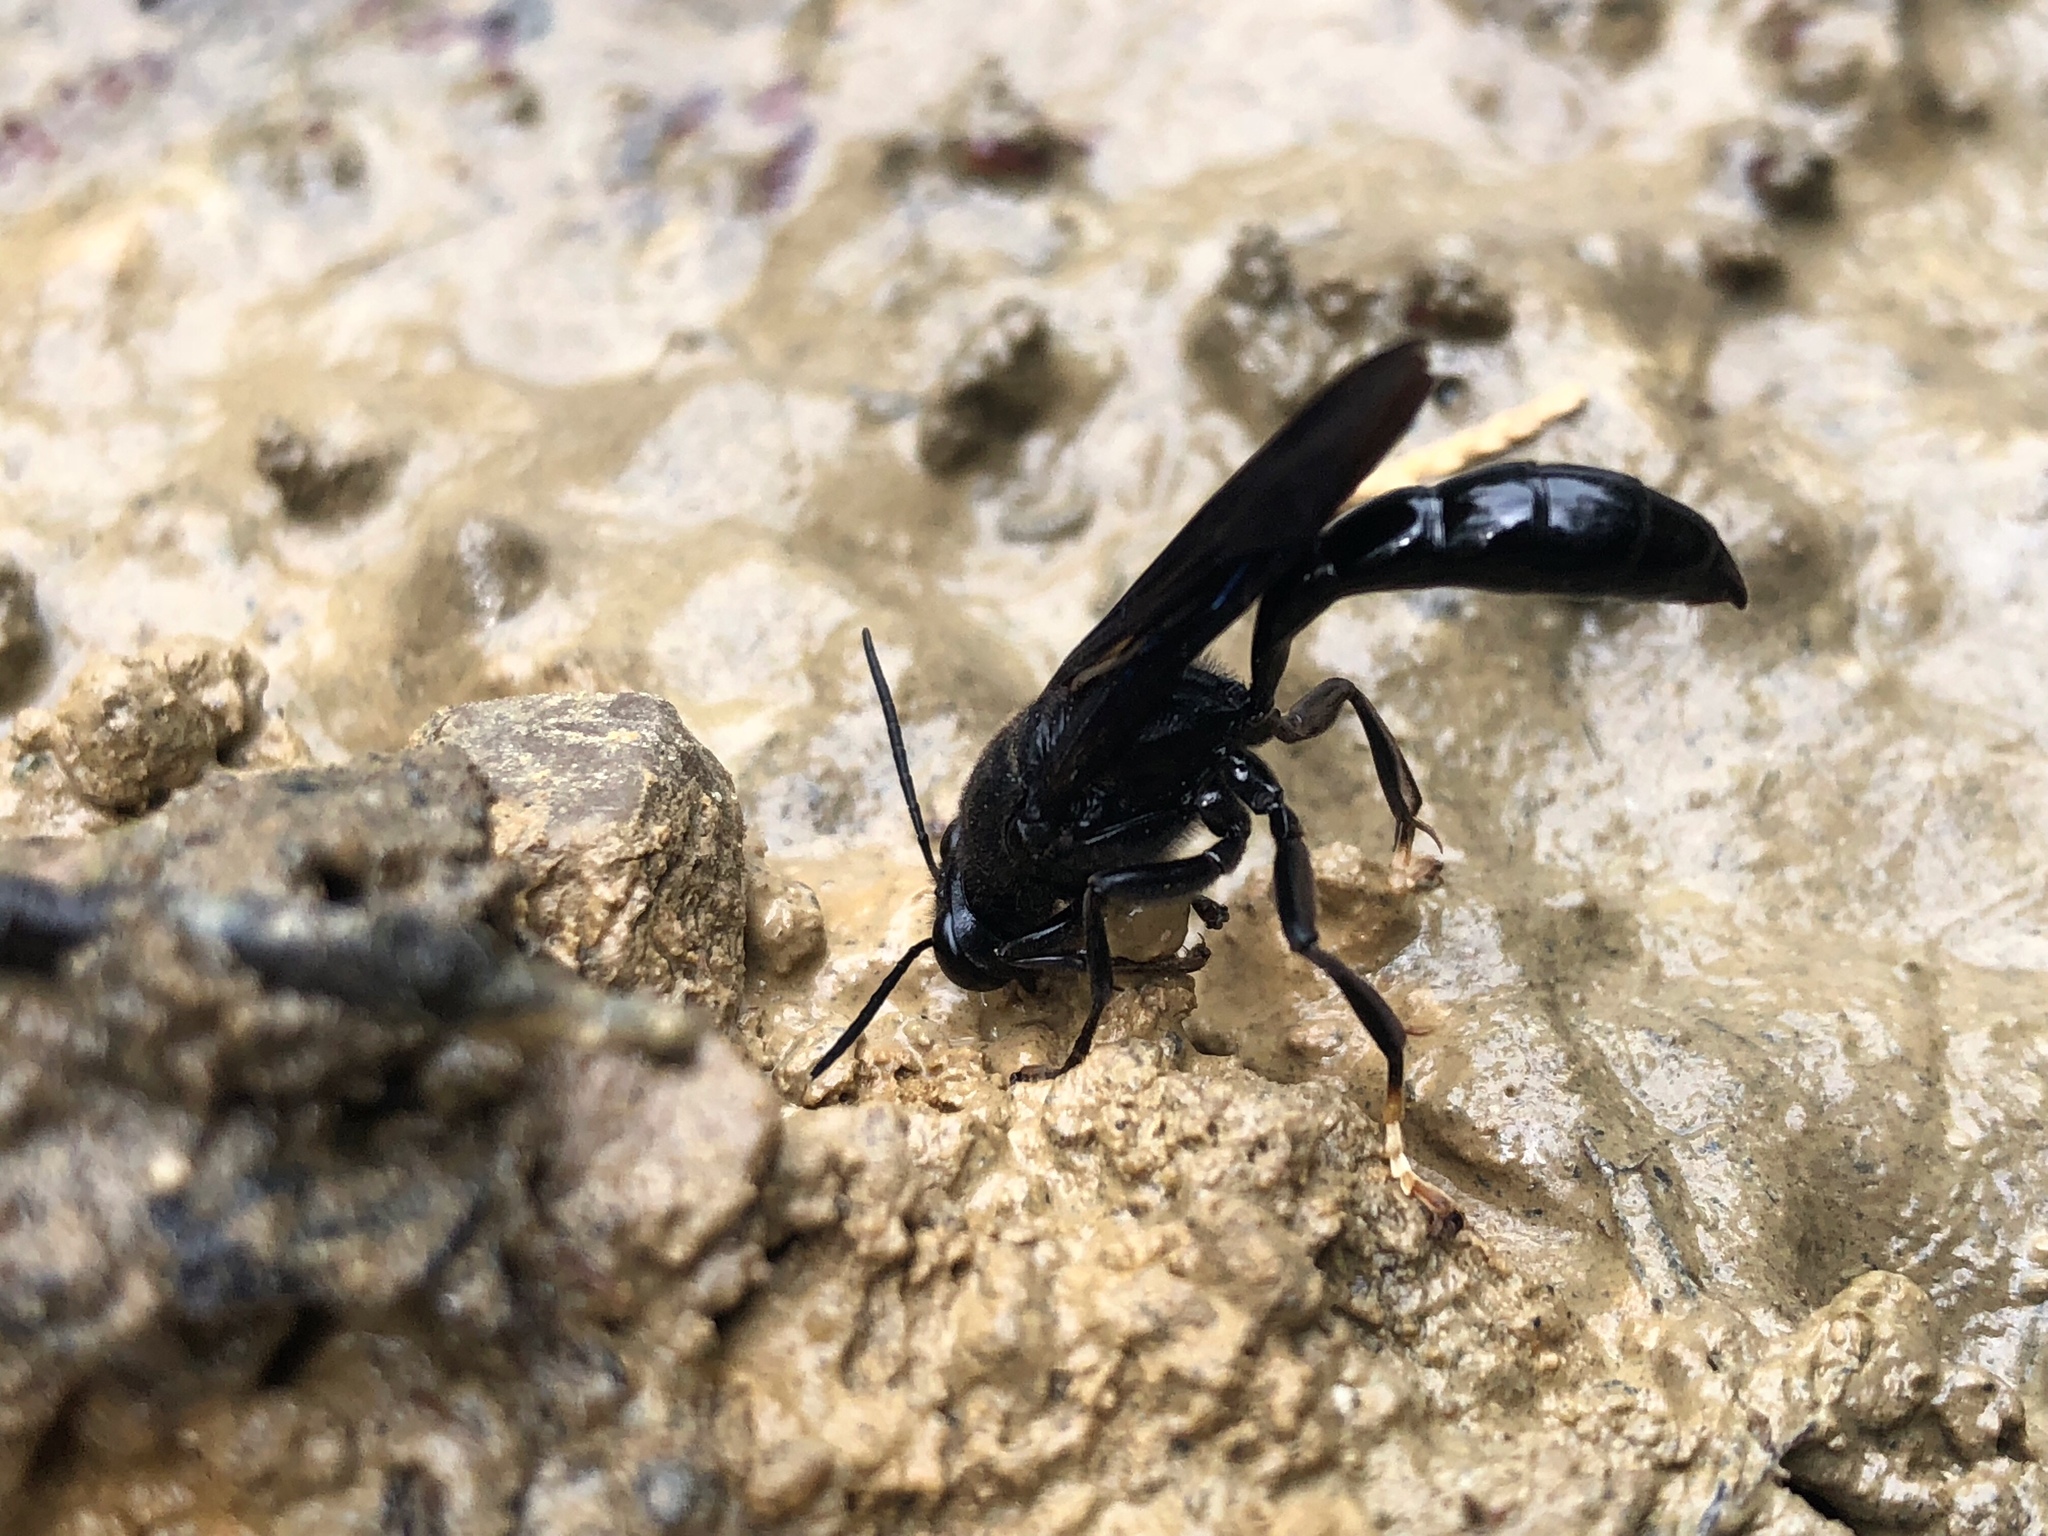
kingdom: Animalia
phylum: Arthropoda
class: Insecta
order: Hymenoptera
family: Crabronidae
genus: Trypoxylon
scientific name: Trypoxylon politum
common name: Organ-pipe mud-dauber wasp
